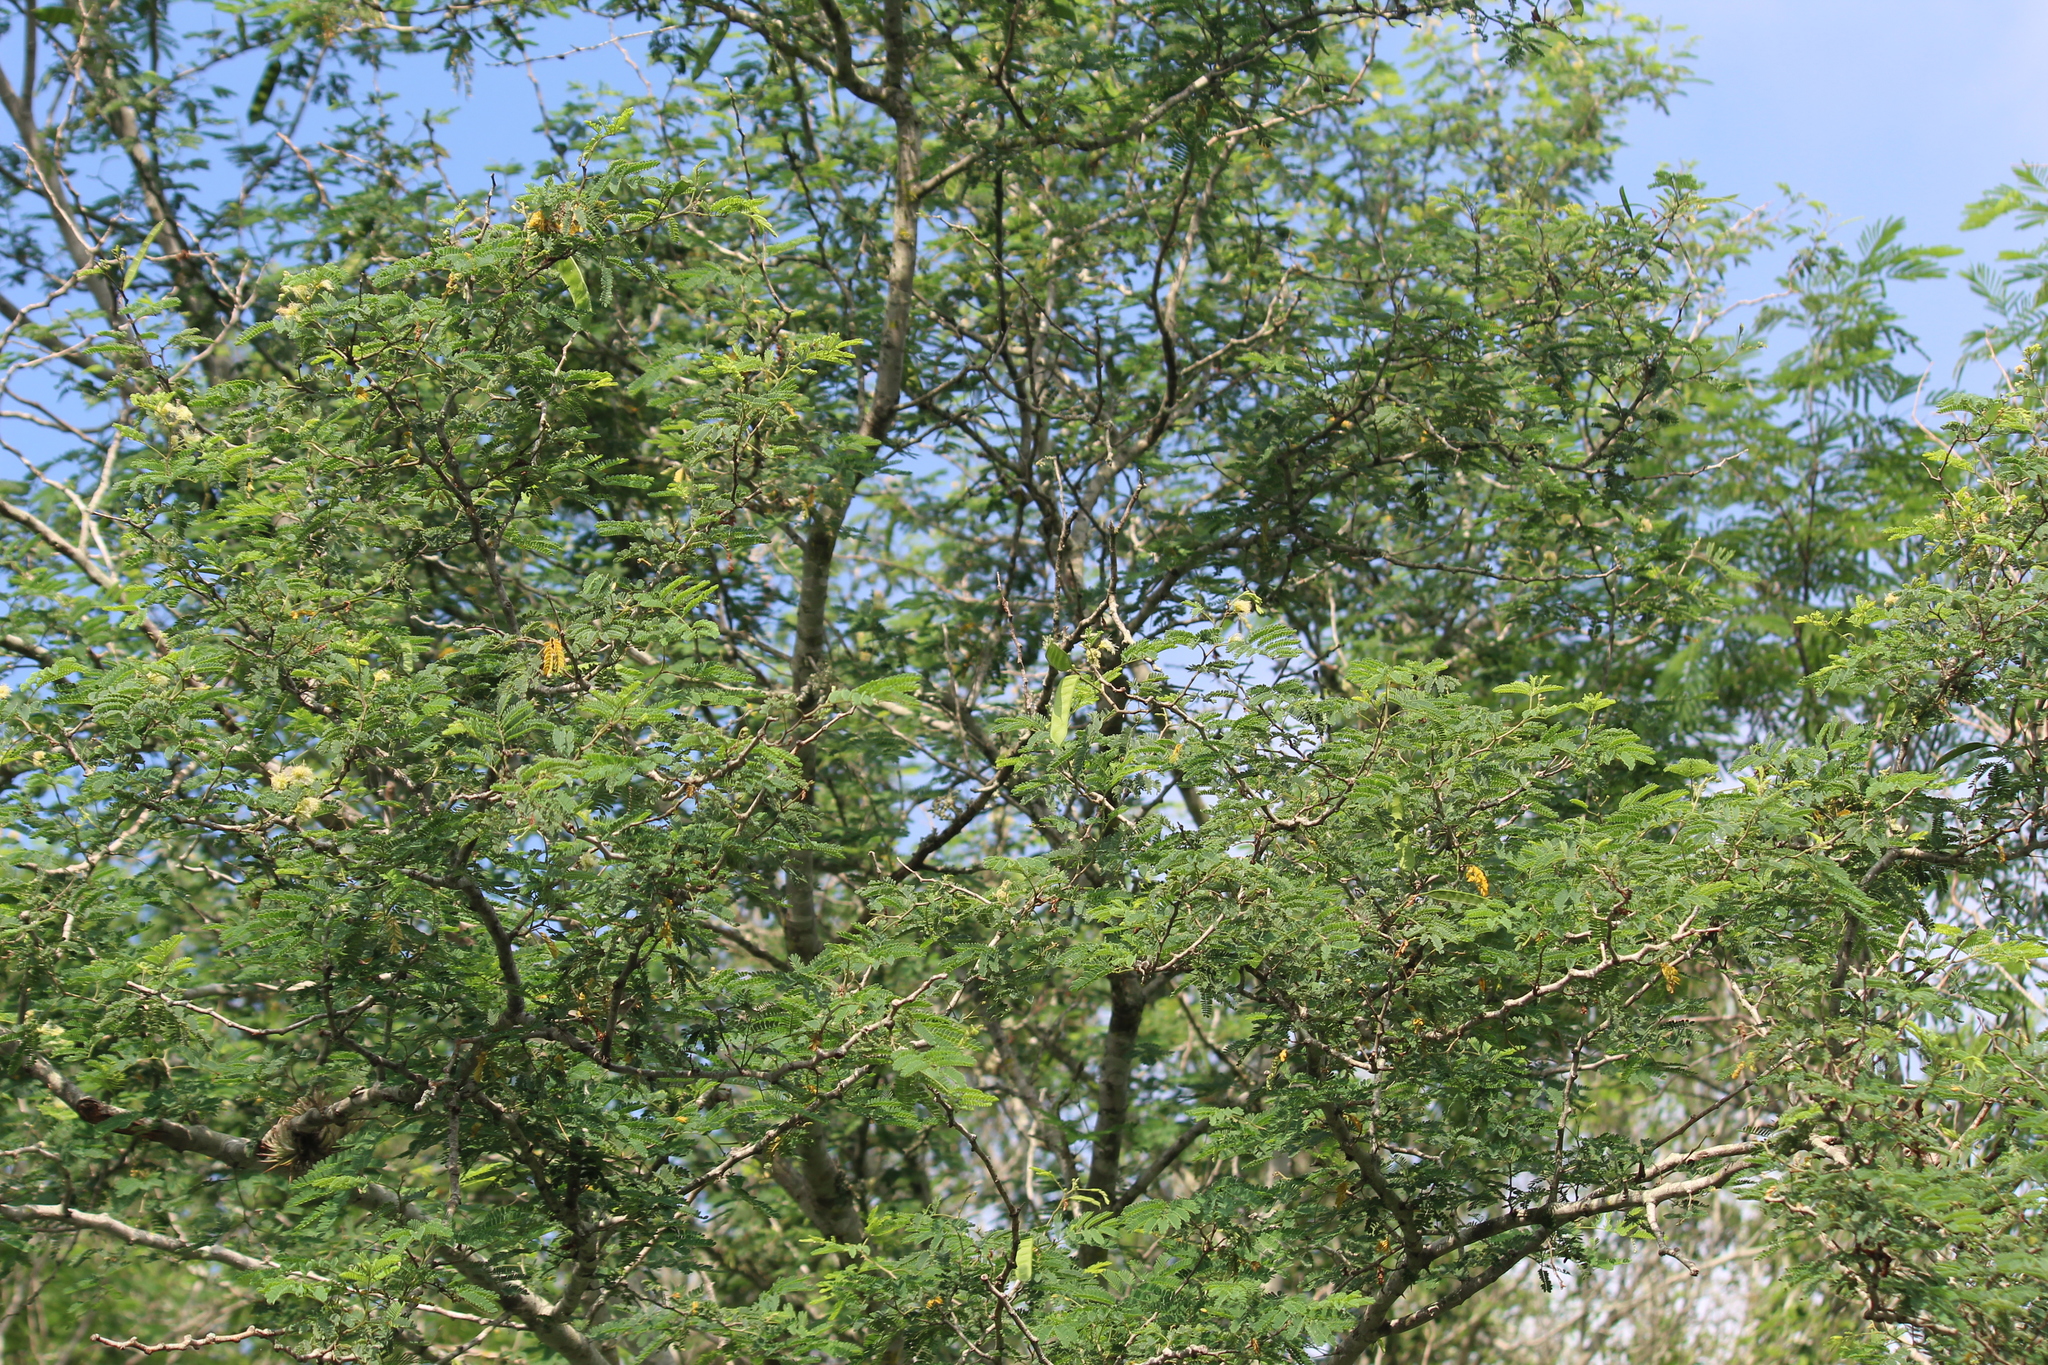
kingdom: Plantae
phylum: Tracheophyta
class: Magnoliopsida
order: Fabales
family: Fabaceae
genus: Havardia
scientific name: Havardia pallens
